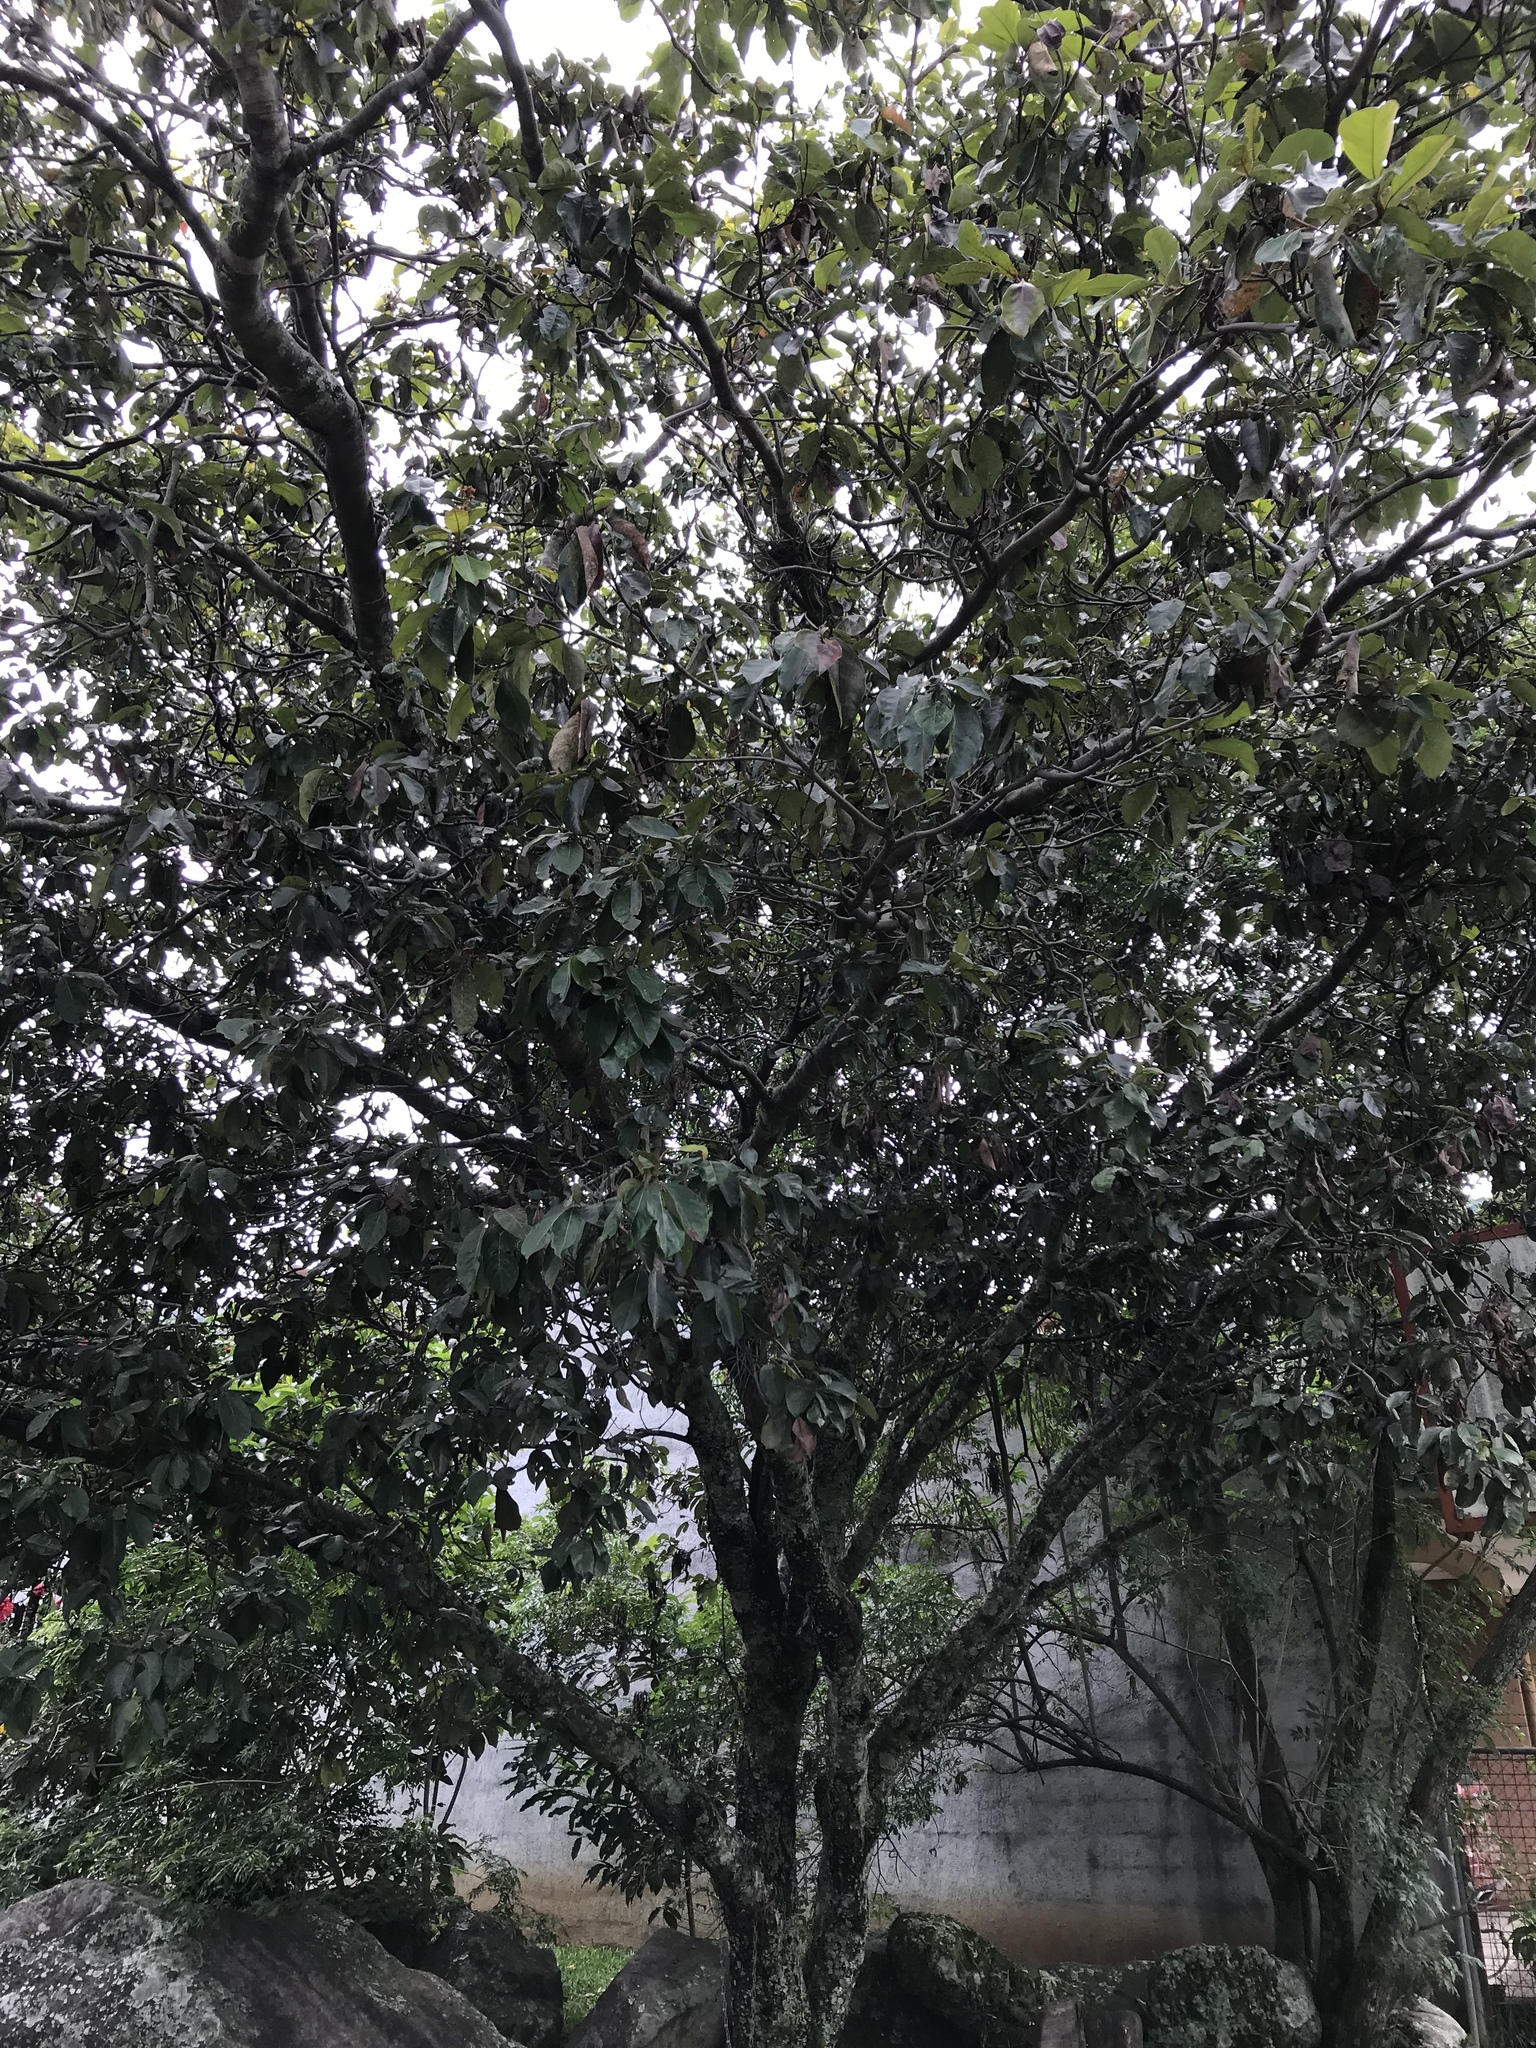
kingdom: Plantae
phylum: Tracheophyta
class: Magnoliopsida
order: Malpighiales
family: Malpighiaceae
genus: Byrsonima
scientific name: Byrsonima crassifolia
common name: Golden spoon
